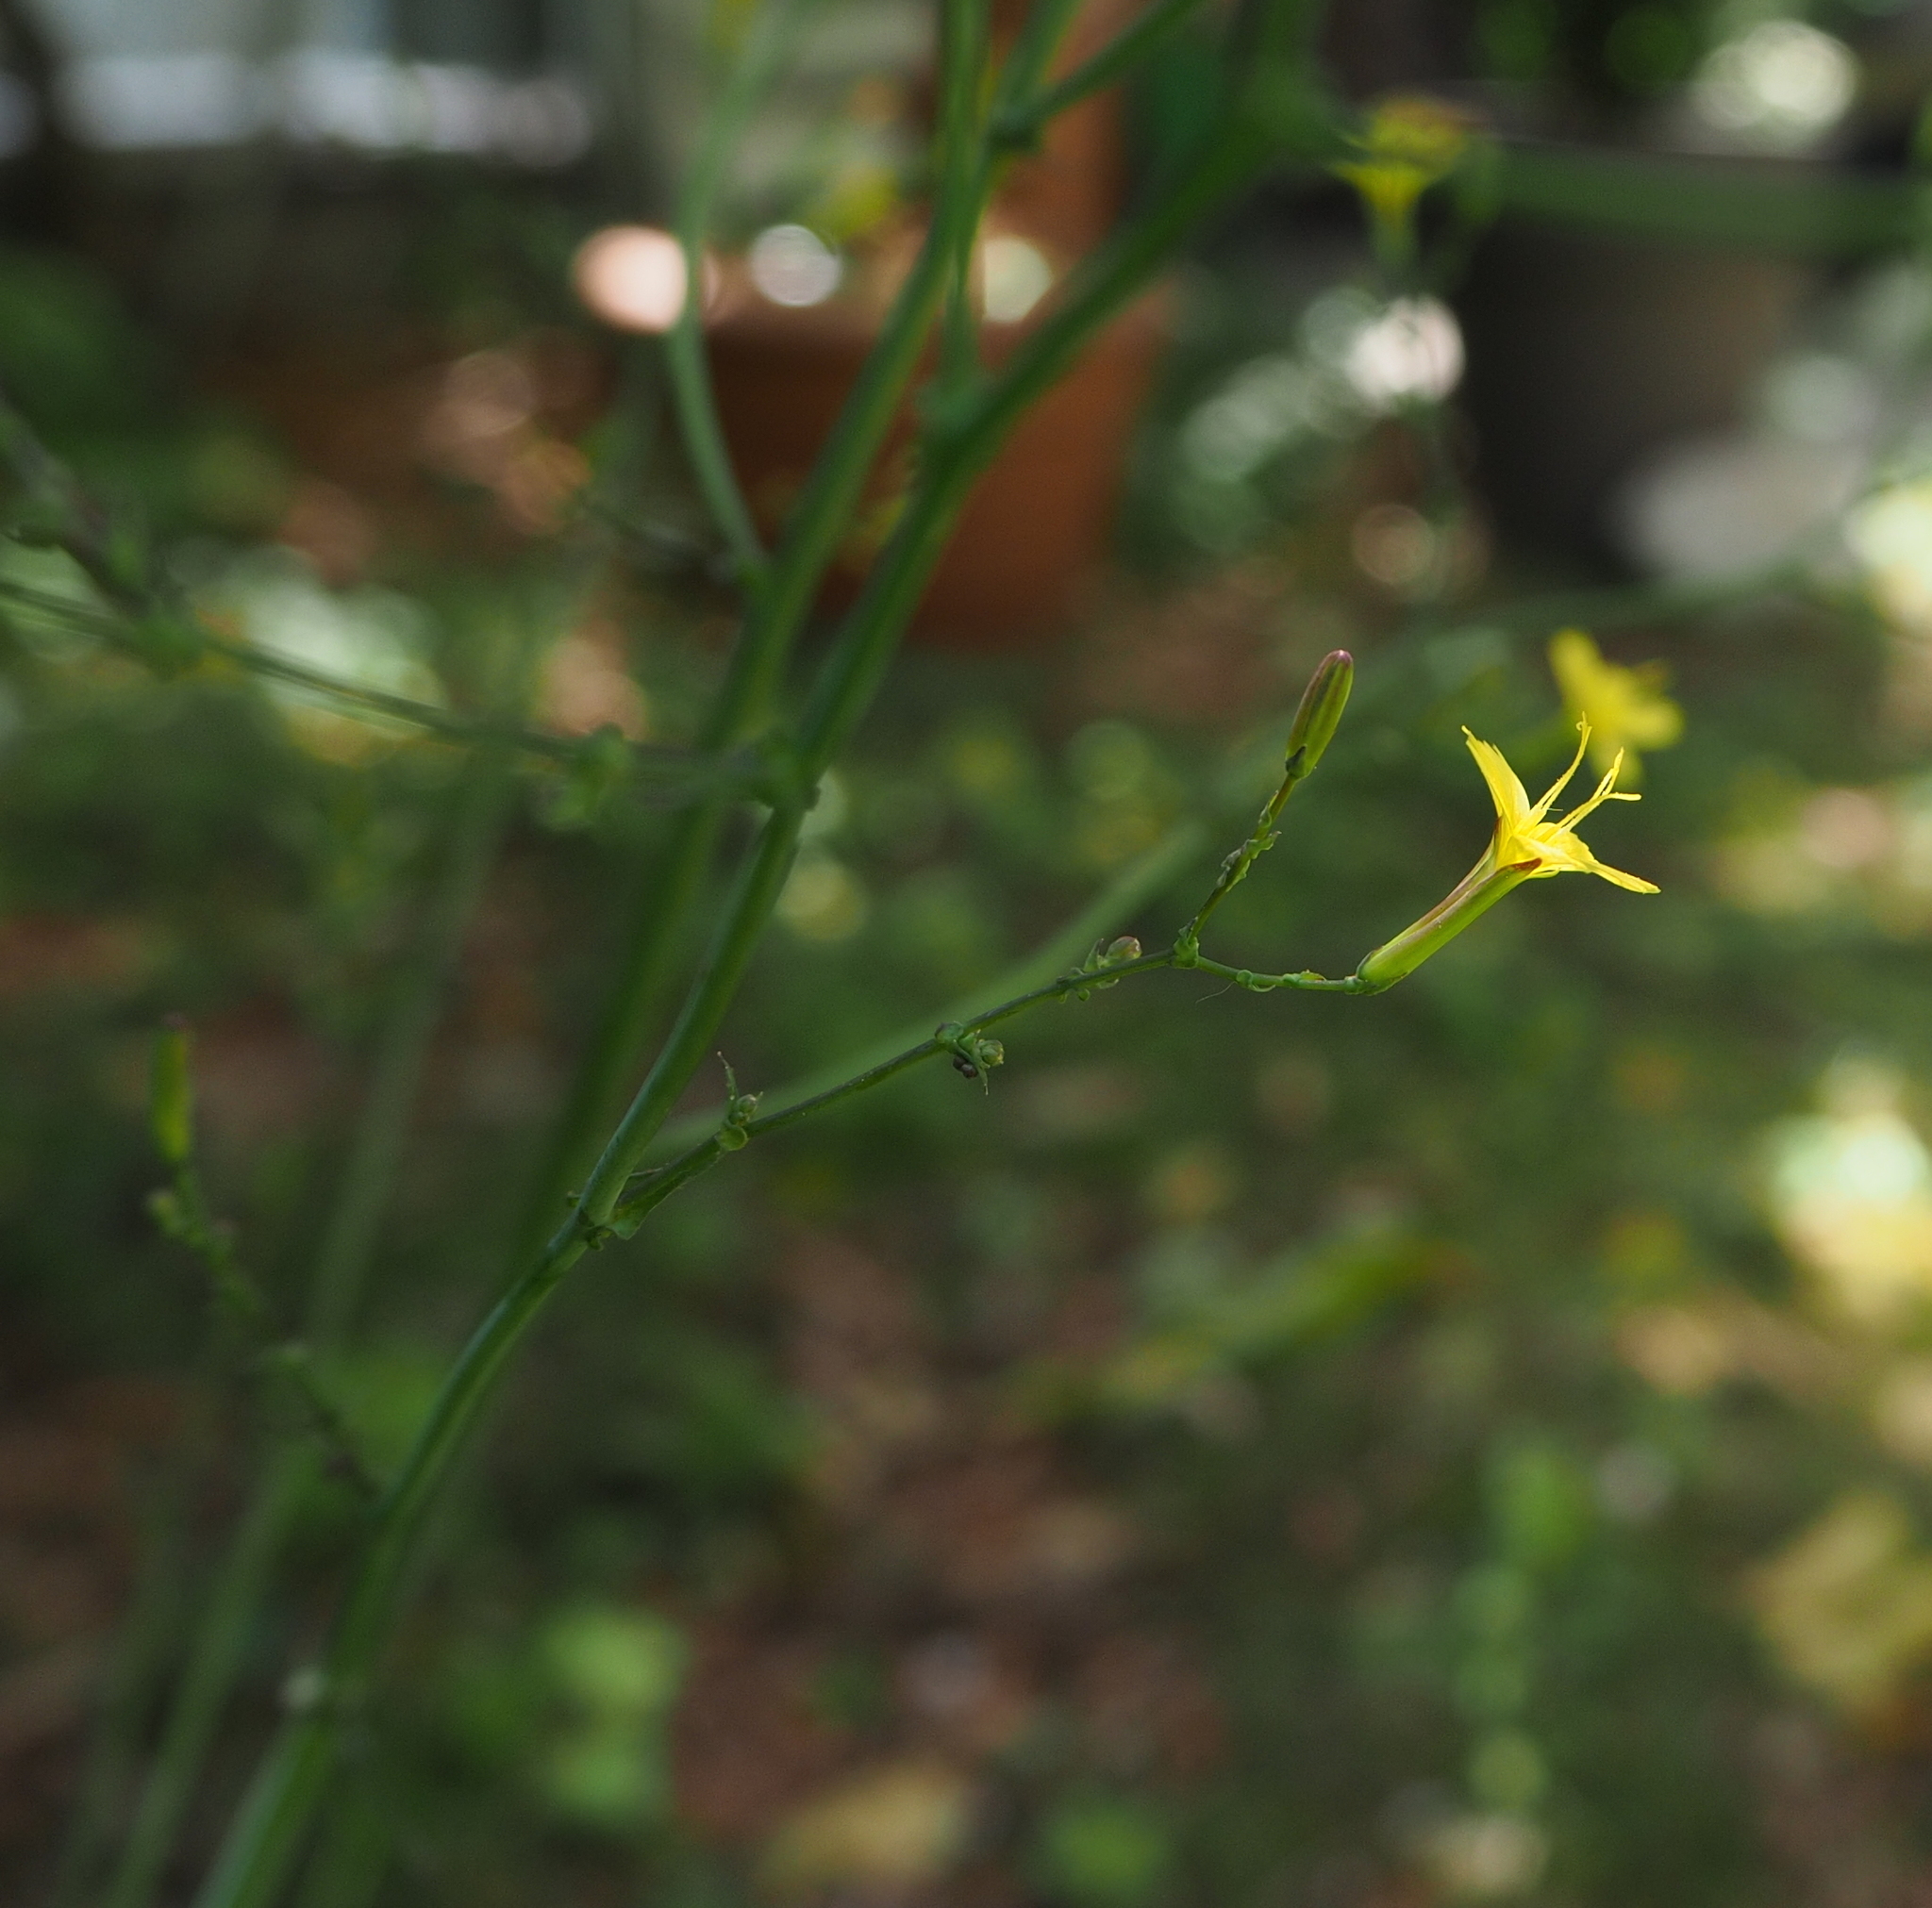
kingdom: Plantae
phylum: Tracheophyta
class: Magnoliopsida
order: Asterales
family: Asteraceae
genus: Mycelis
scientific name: Mycelis muralis
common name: Wall lettuce
